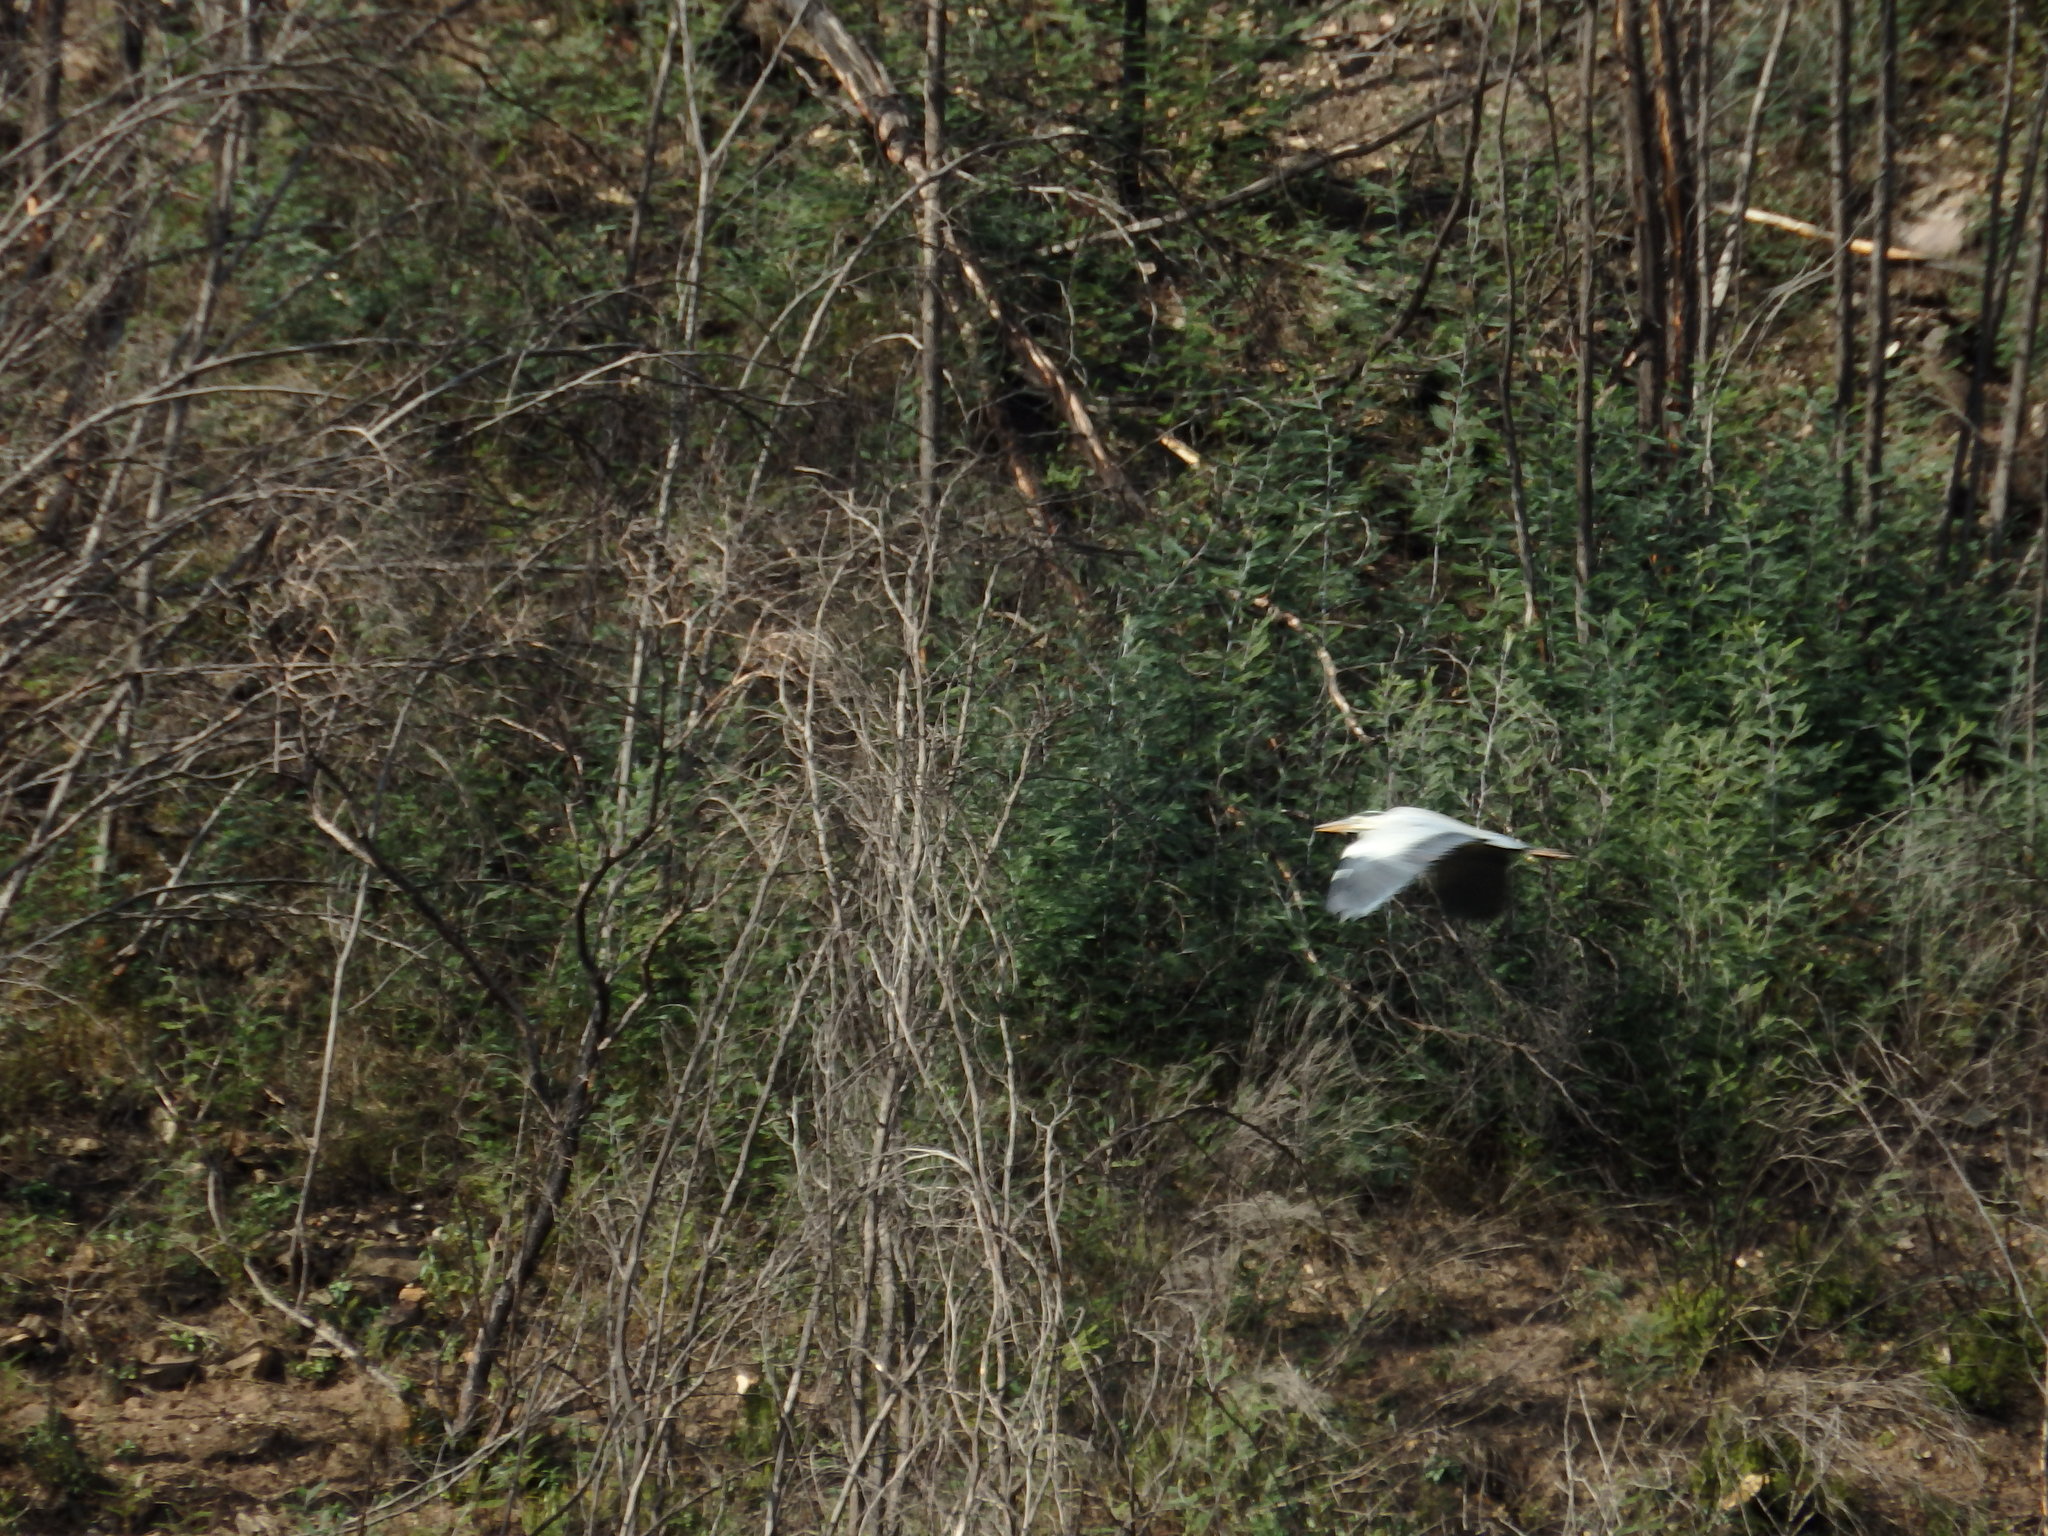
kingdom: Animalia
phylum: Chordata
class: Aves
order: Pelecaniformes
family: Ardeidae
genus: Ardea
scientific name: Ardea cinerea
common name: Grey heron
